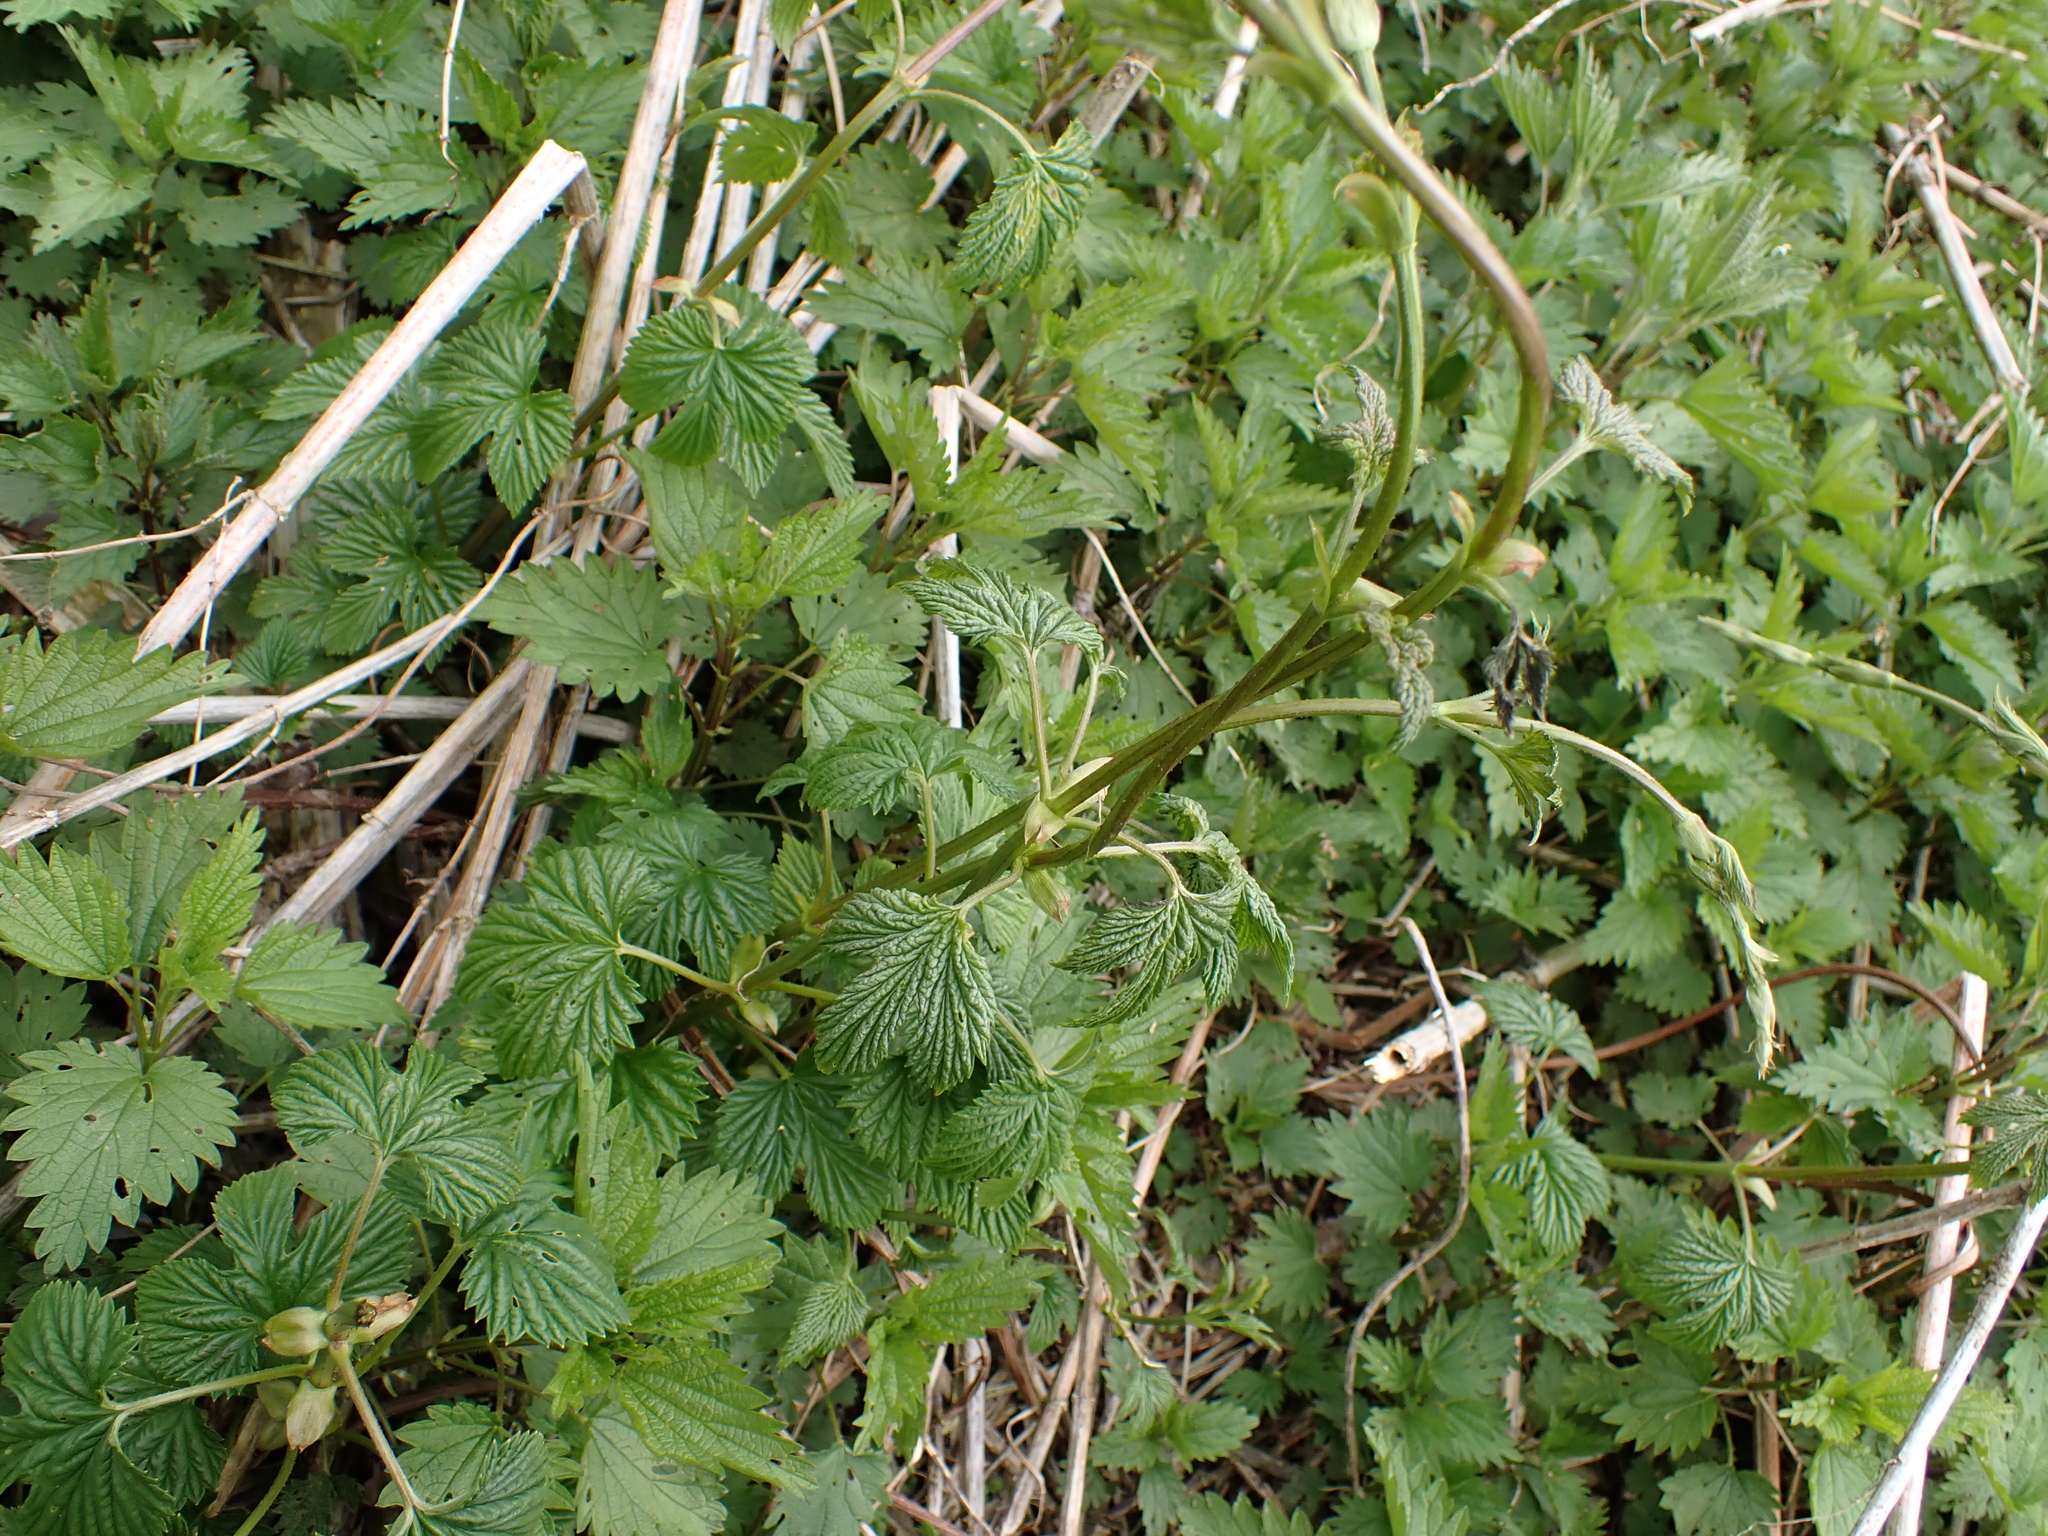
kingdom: Plantae
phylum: Tracheophyta
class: Magnoliopsida
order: Rosales
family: Cannabaceae
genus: Humulus
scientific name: Humulus lupulus
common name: Hop
